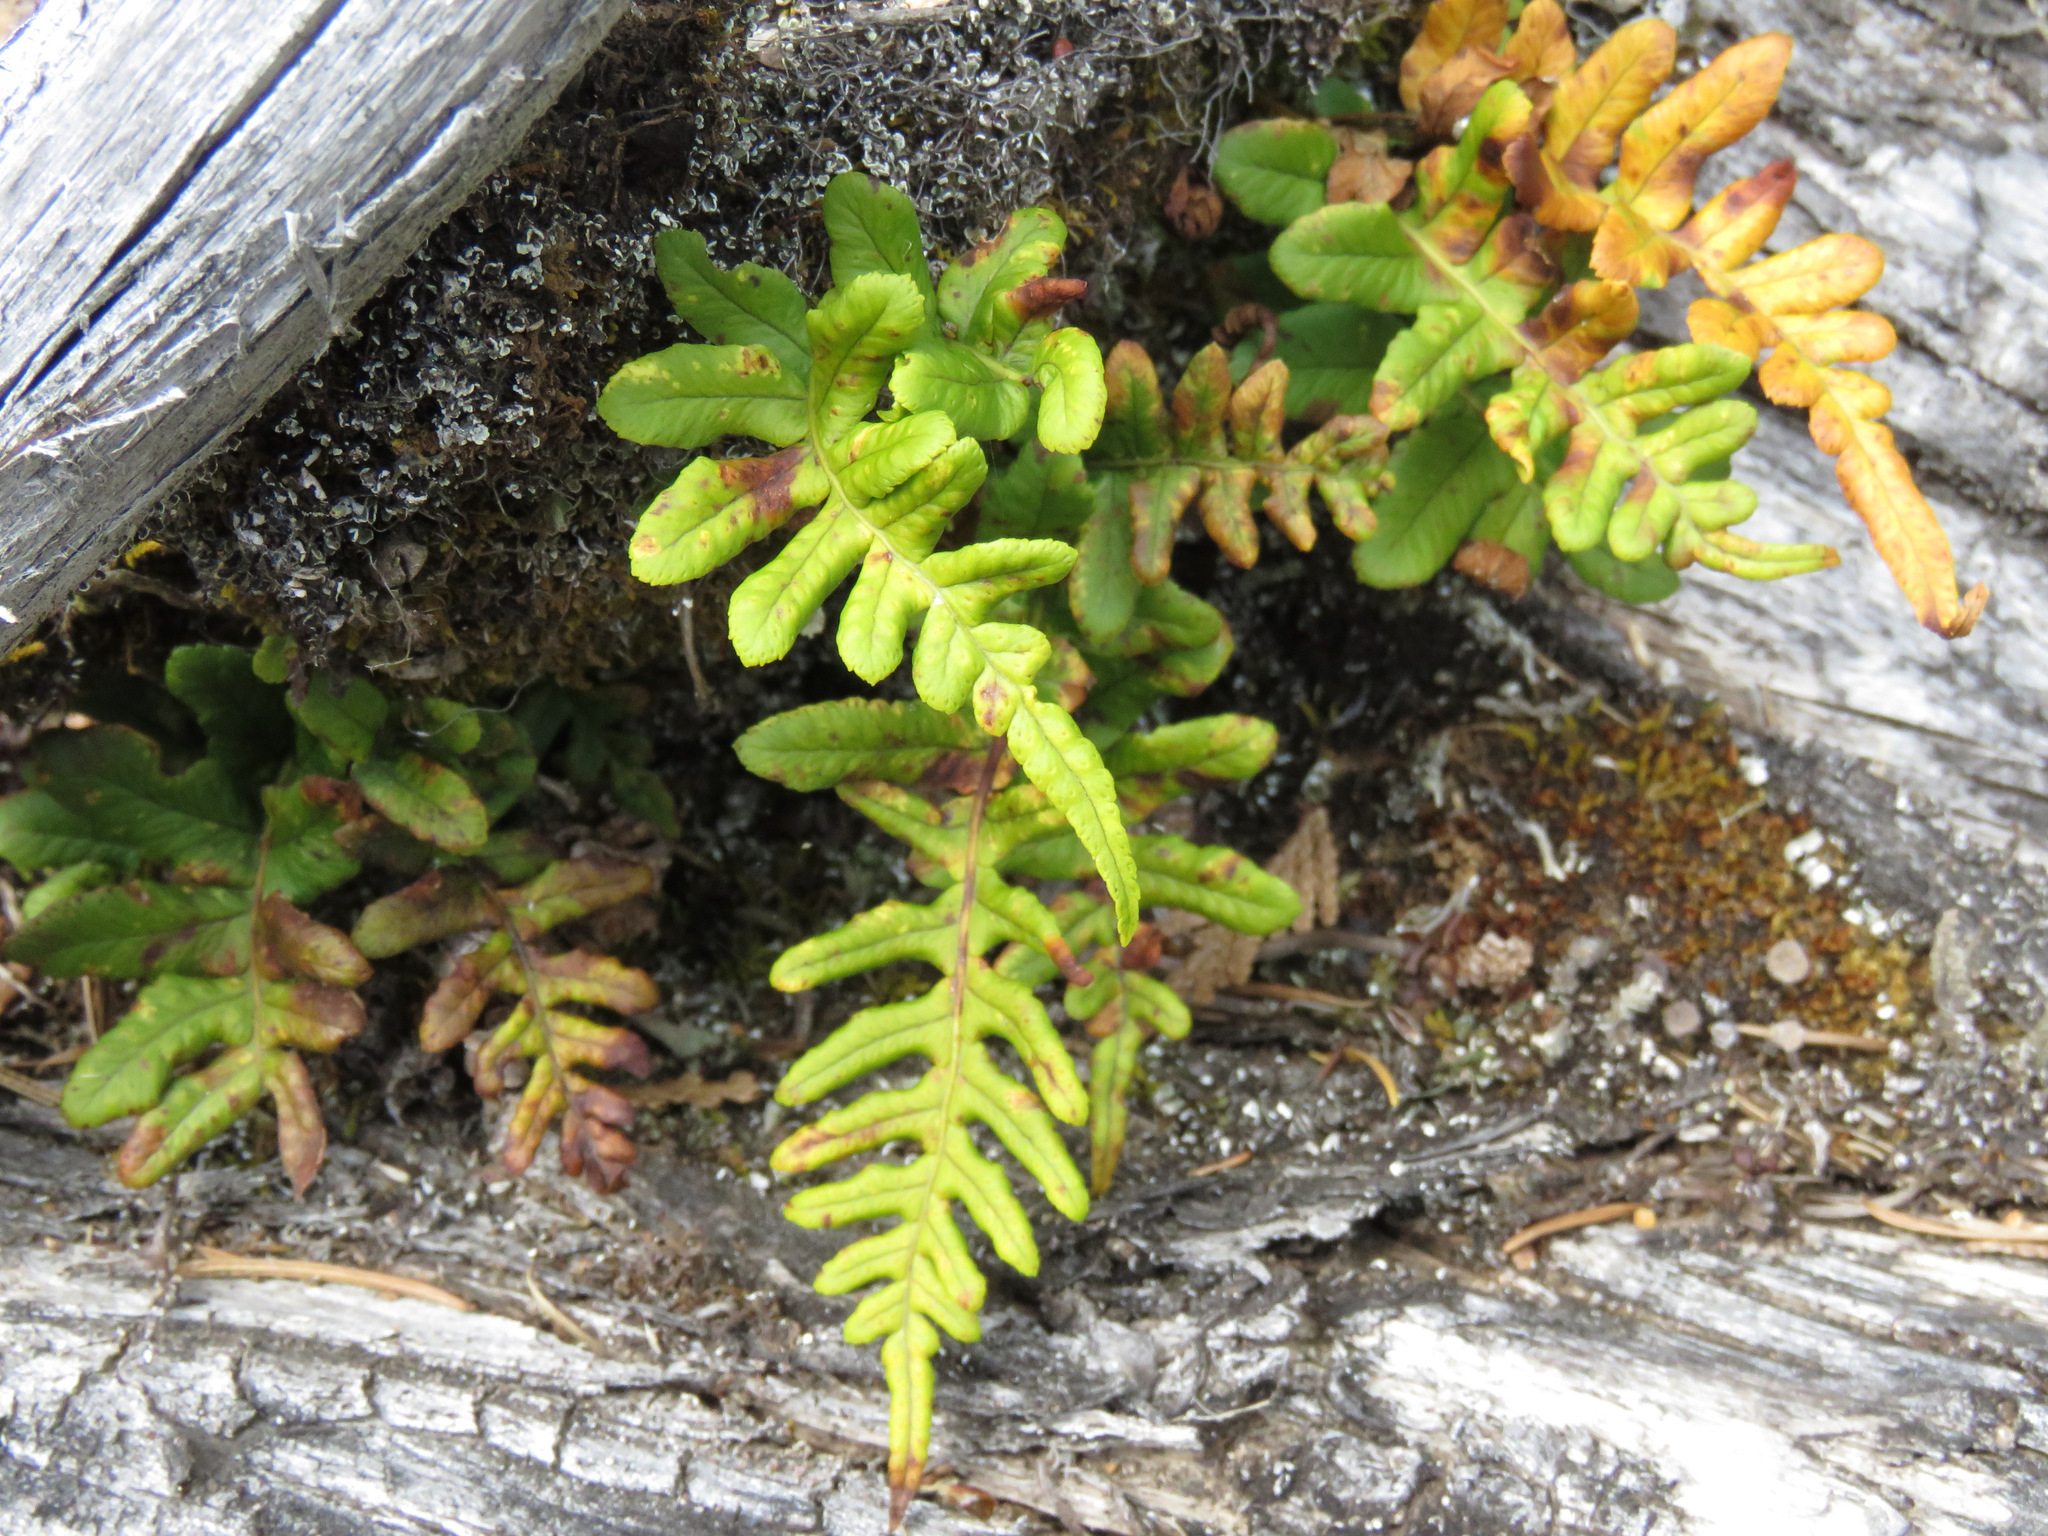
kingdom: Plantae
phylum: Tracheophyta
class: Polypodiopsida
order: Polypodiales
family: Polypodiaceae
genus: Polypodium
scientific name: Polypodium glycyrrhiza
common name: Licorice fern
